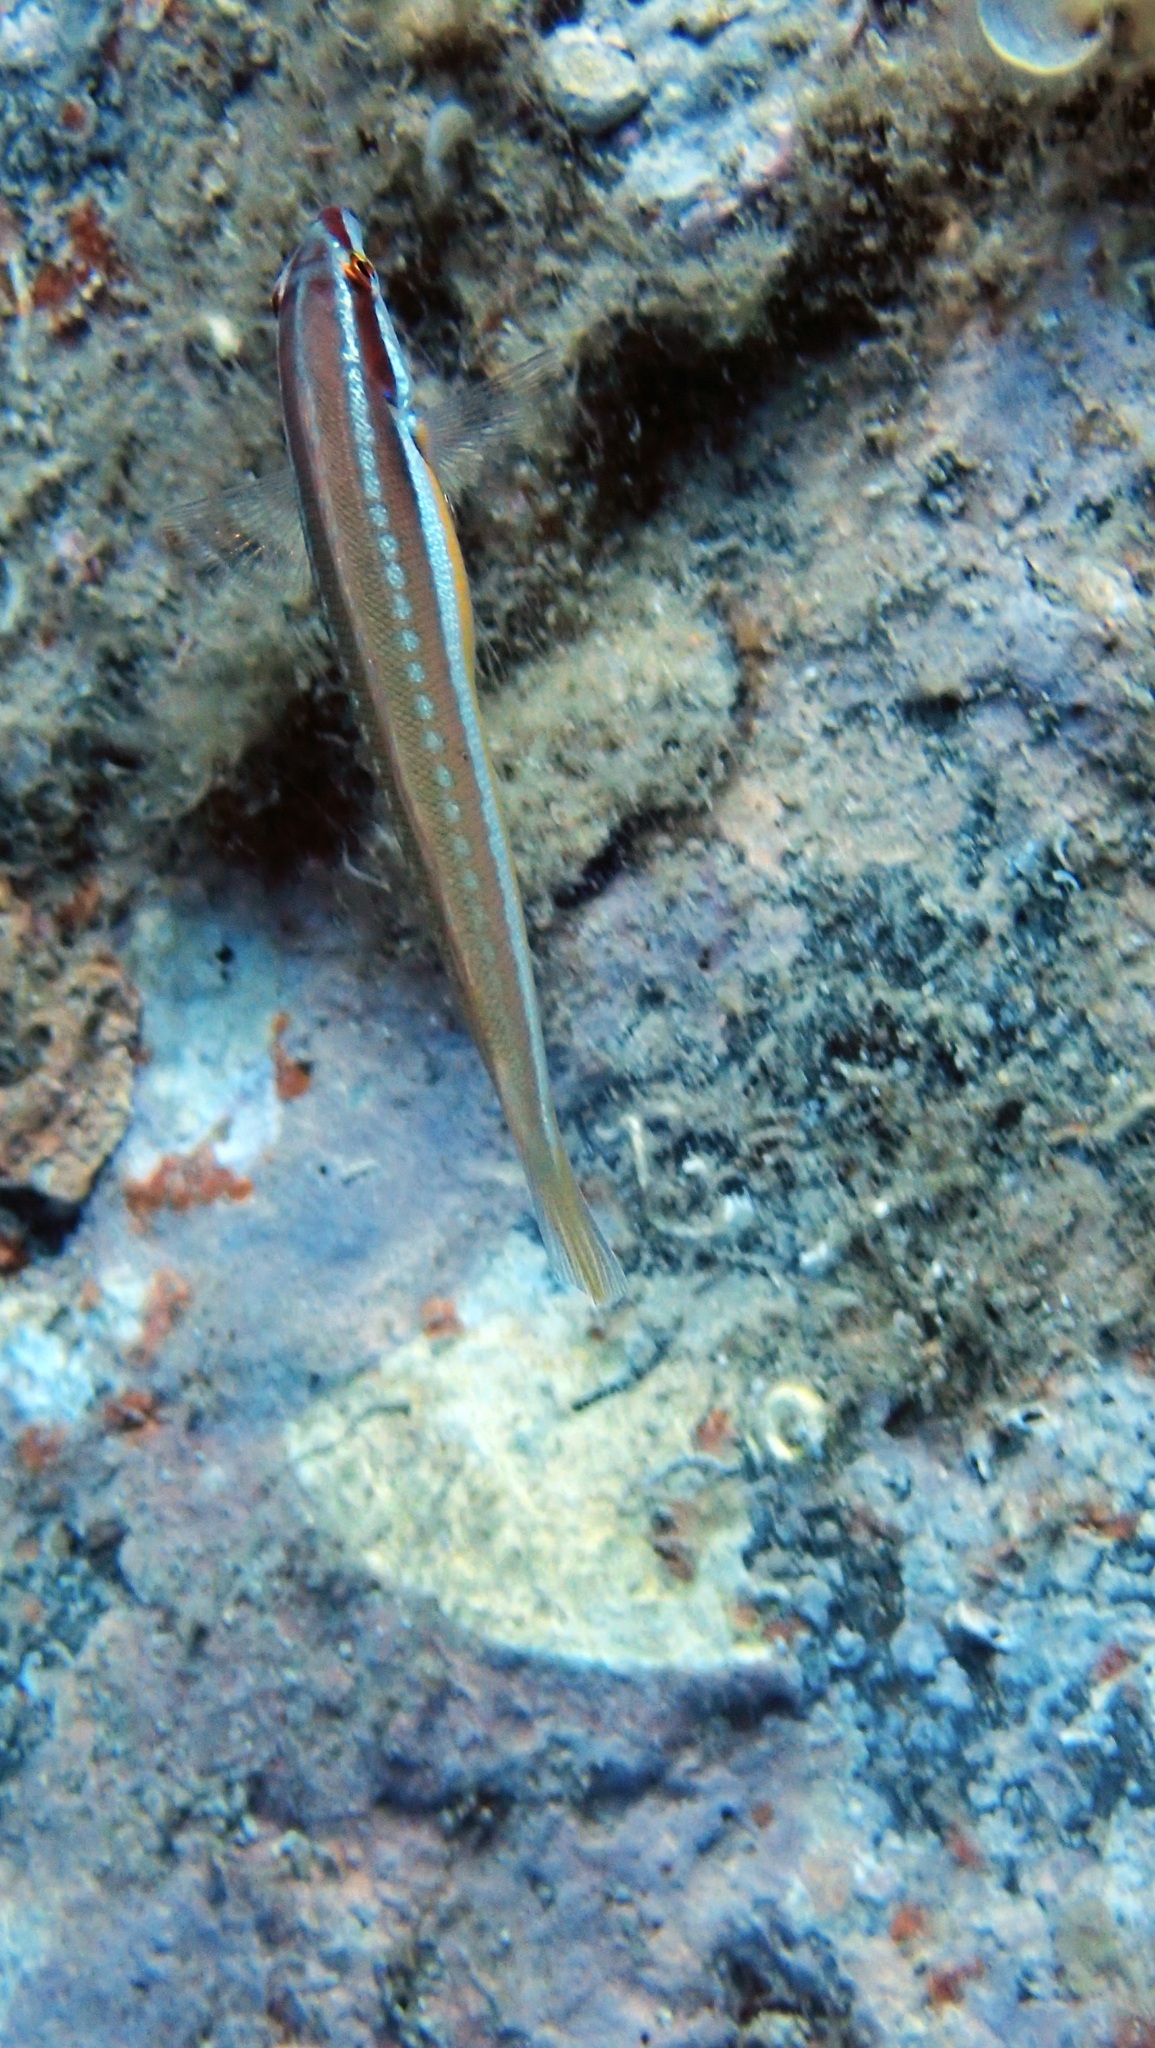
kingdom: Animalia
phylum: Chordata
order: Perciformes
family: Labridae
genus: Coris
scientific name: Coris julis
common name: Rainbow wrasse
